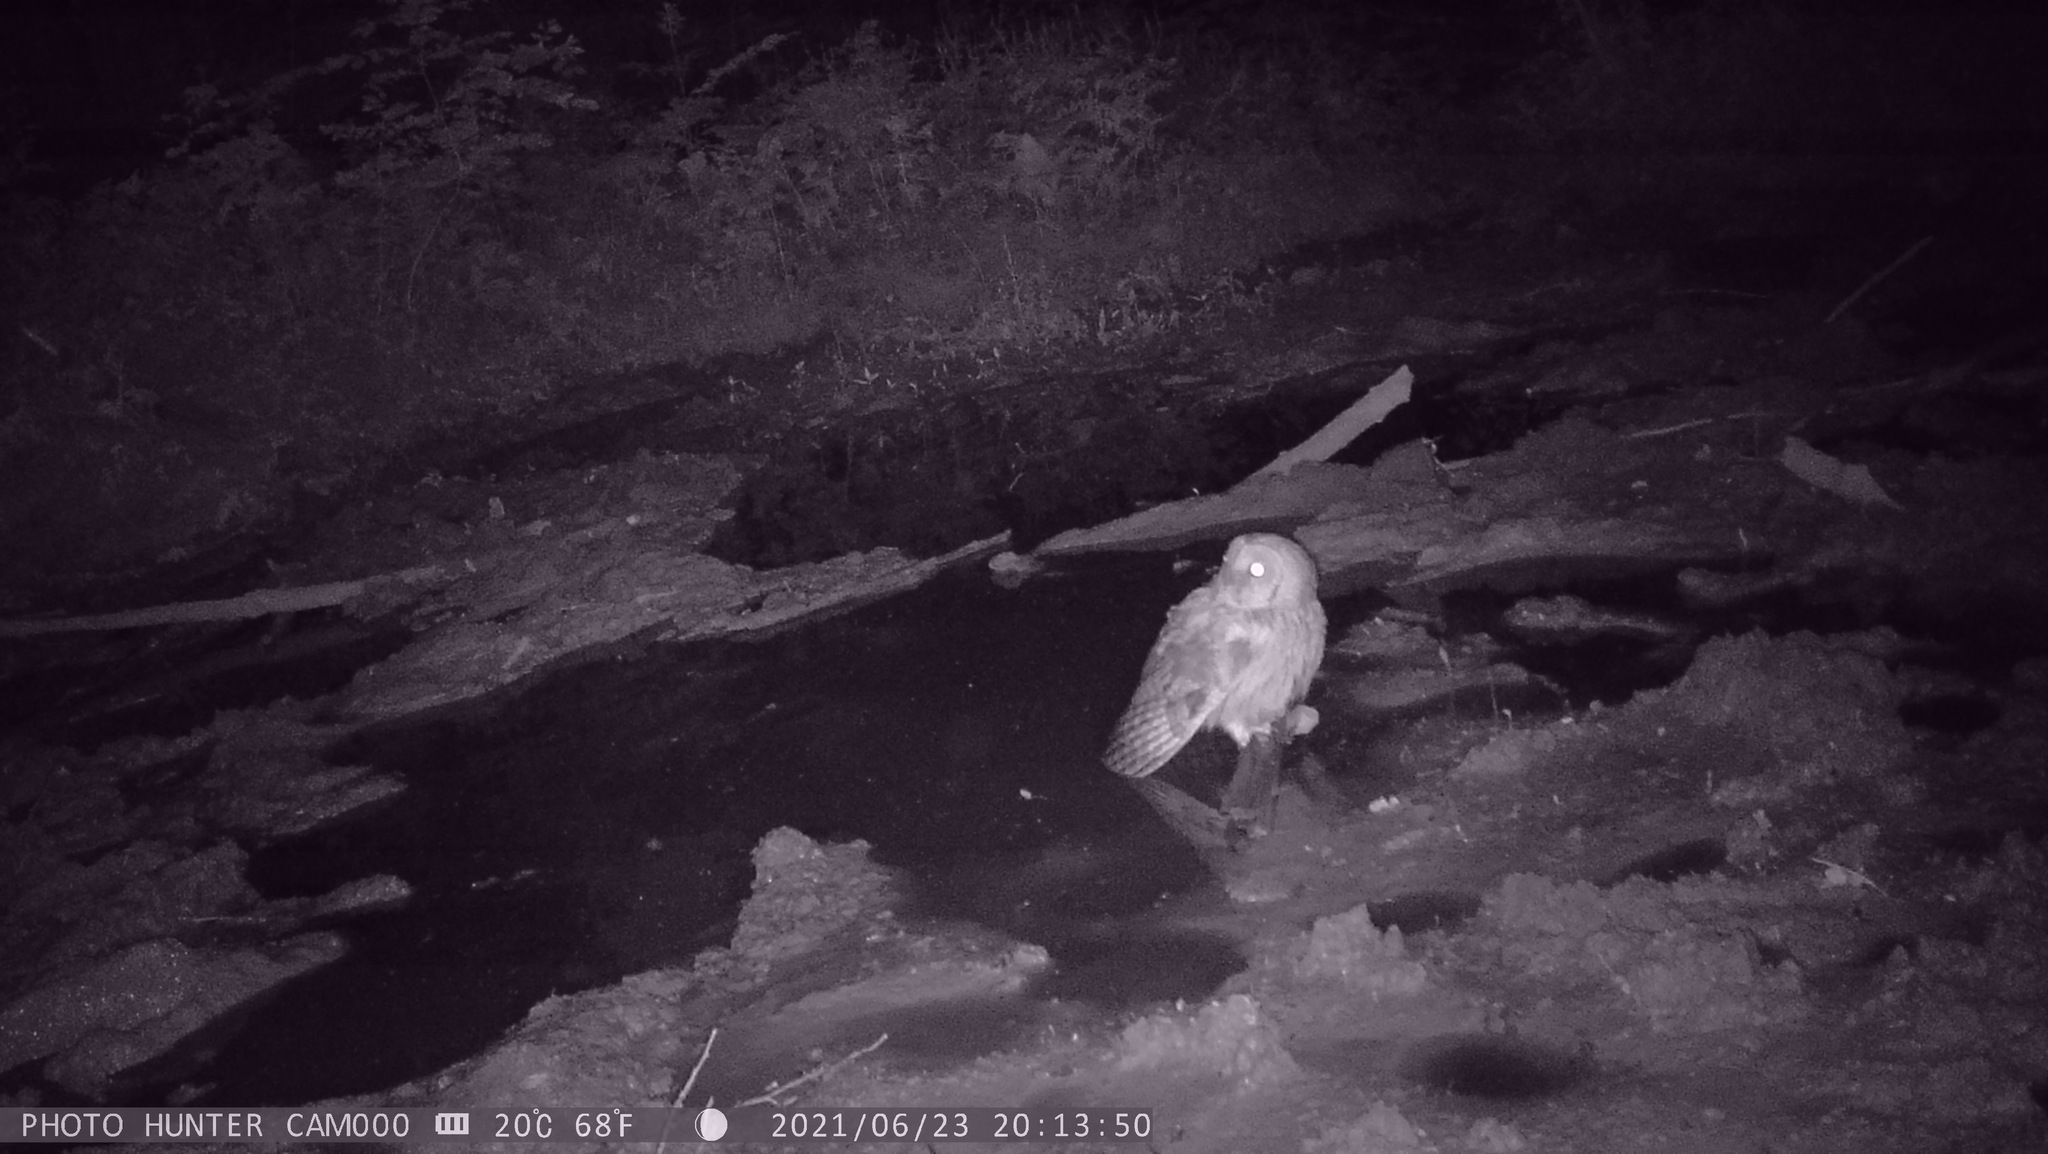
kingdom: Animalia
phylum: Chordata
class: Aves
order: Strigiformes
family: Strigidae
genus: Strix
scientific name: Strix aluco
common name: Tawny owl
